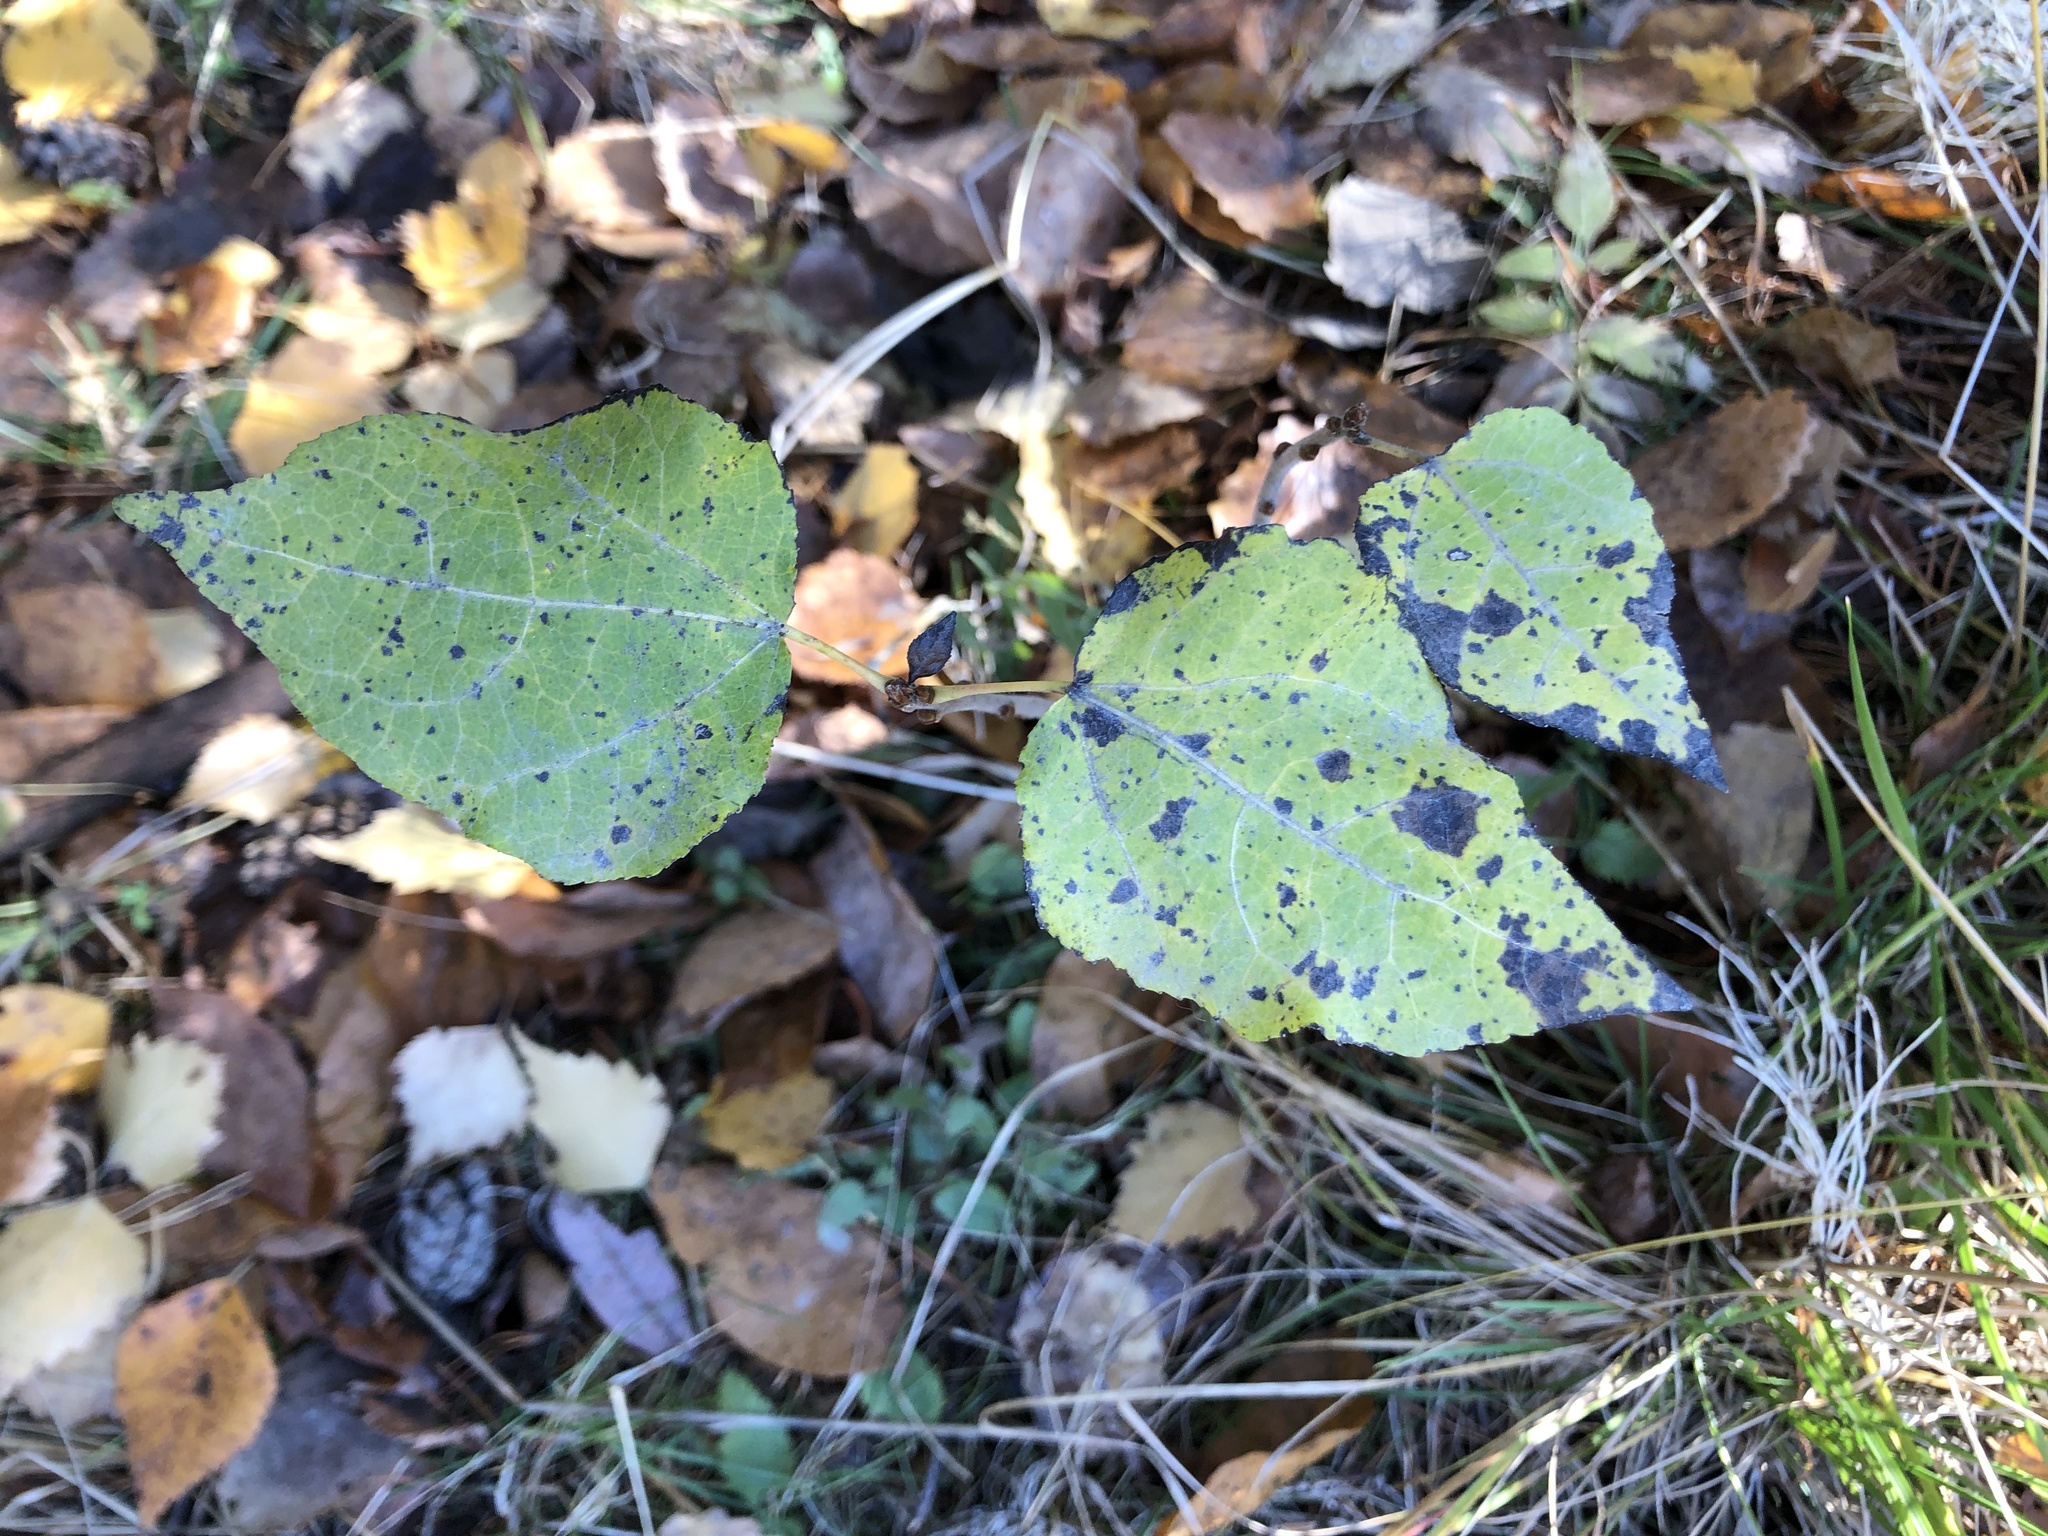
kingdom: Plantae
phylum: Tracheophyta
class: Magnoliopsida
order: Malpighiales
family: Salicaceae
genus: Populus
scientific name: Populus tremula
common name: European aspen
